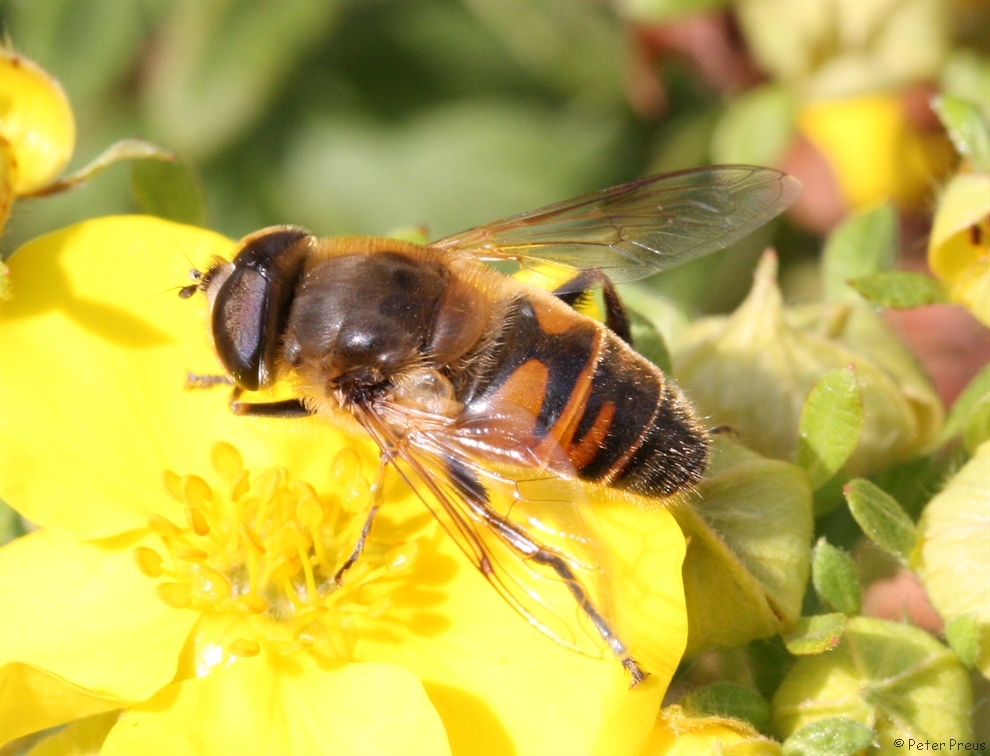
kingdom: Animalia
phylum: Arthropoda
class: Insecta
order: Diptera
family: Syrphidae
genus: Eristalis
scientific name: Eristalis tenax
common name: Drone fly
